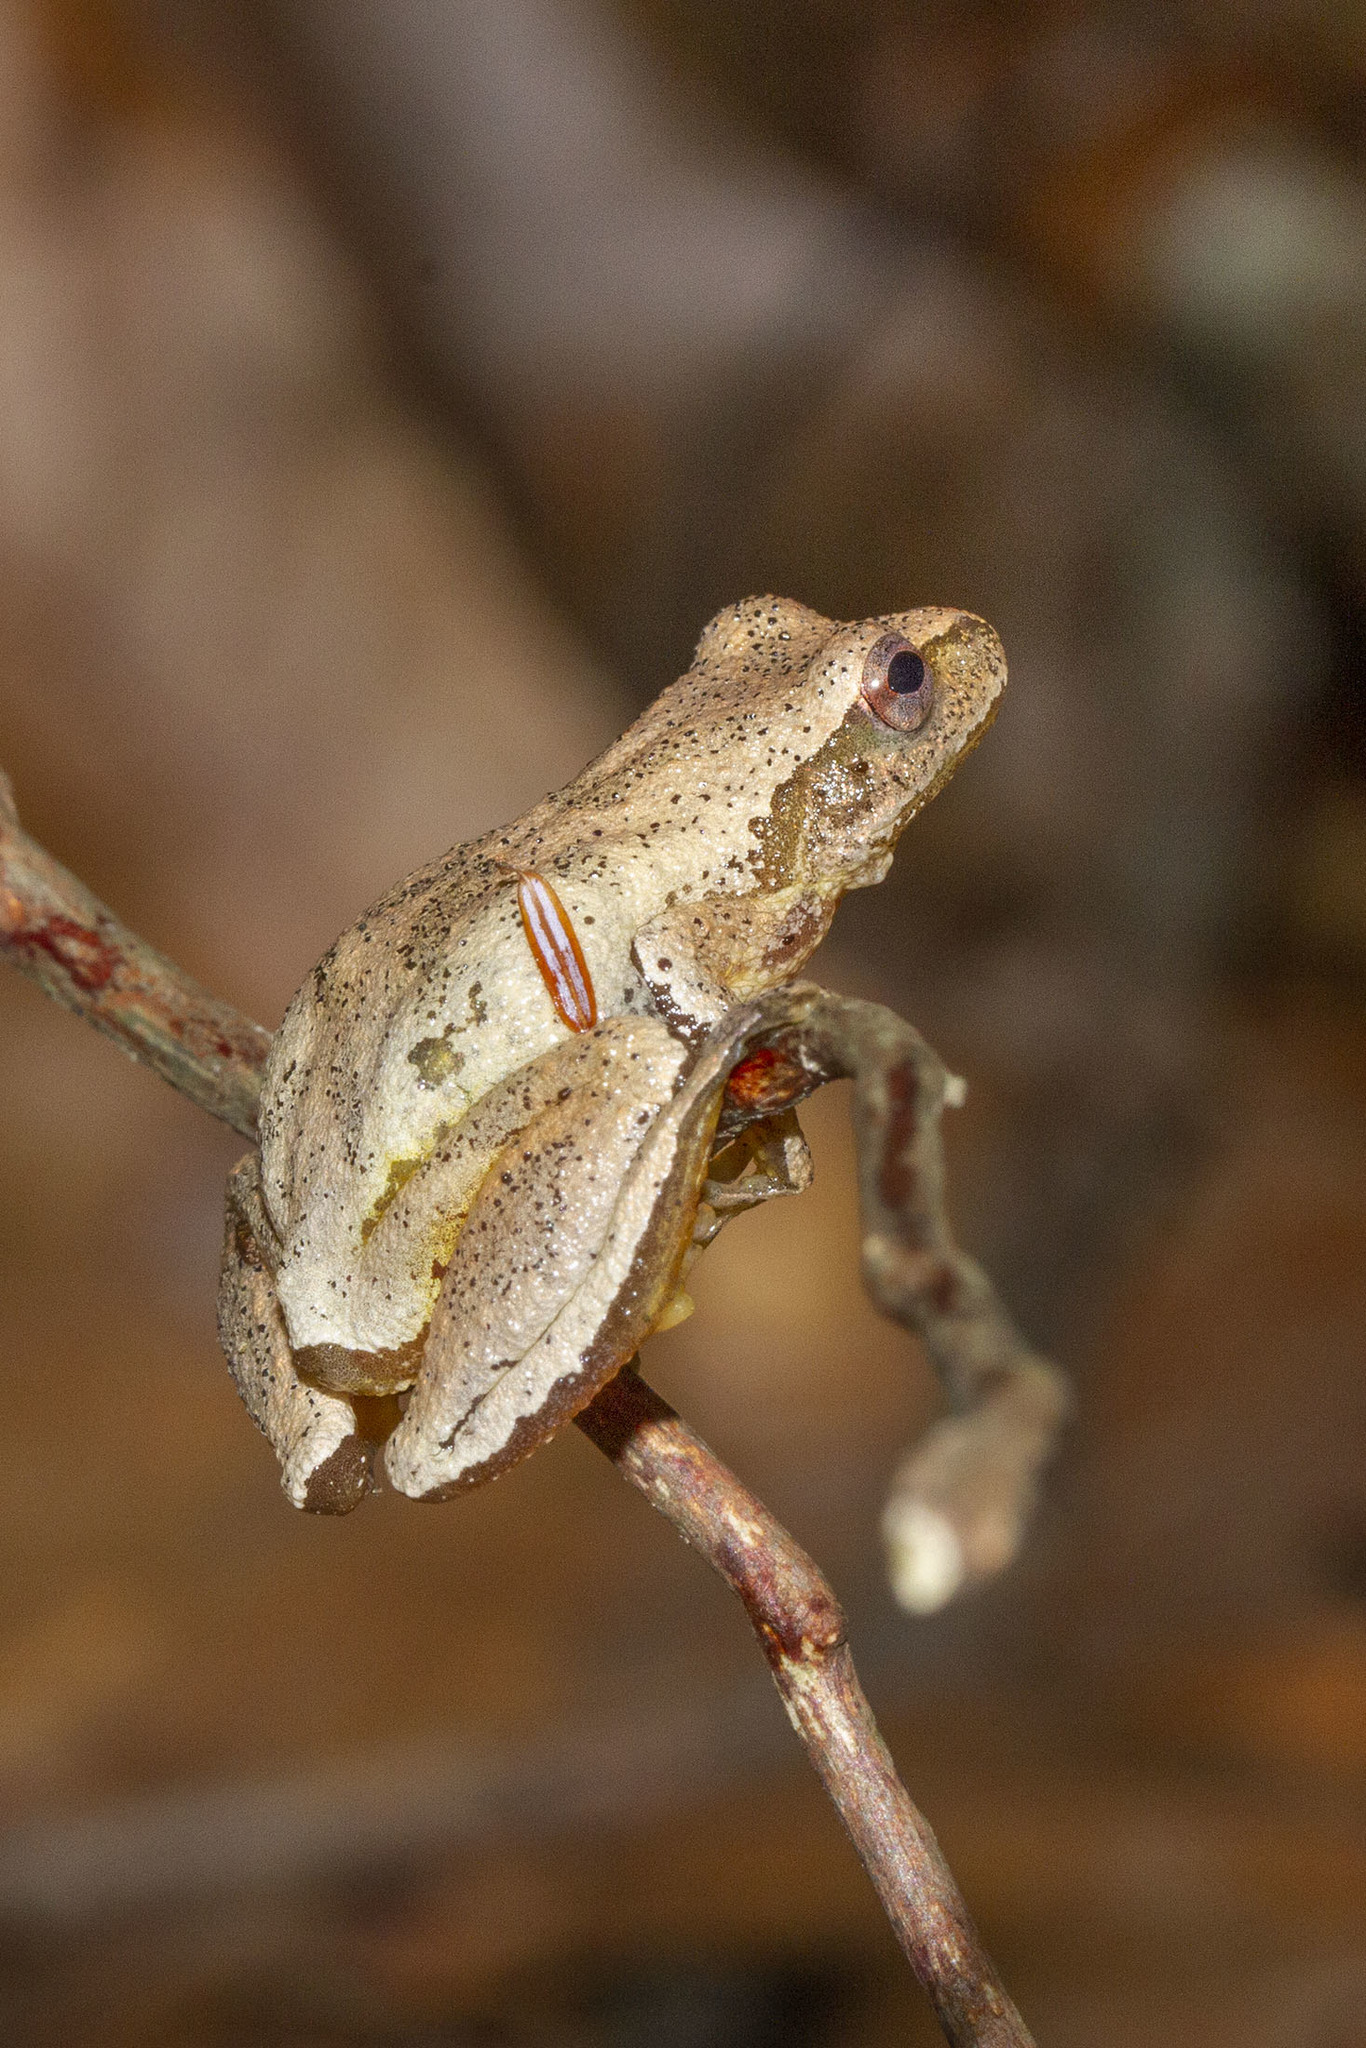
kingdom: Animalia
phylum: Chordata
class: Amphibia
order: Anura
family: Hylidae
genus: Pseudacris
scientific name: Pseudacris crucifer
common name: Spring peeper
